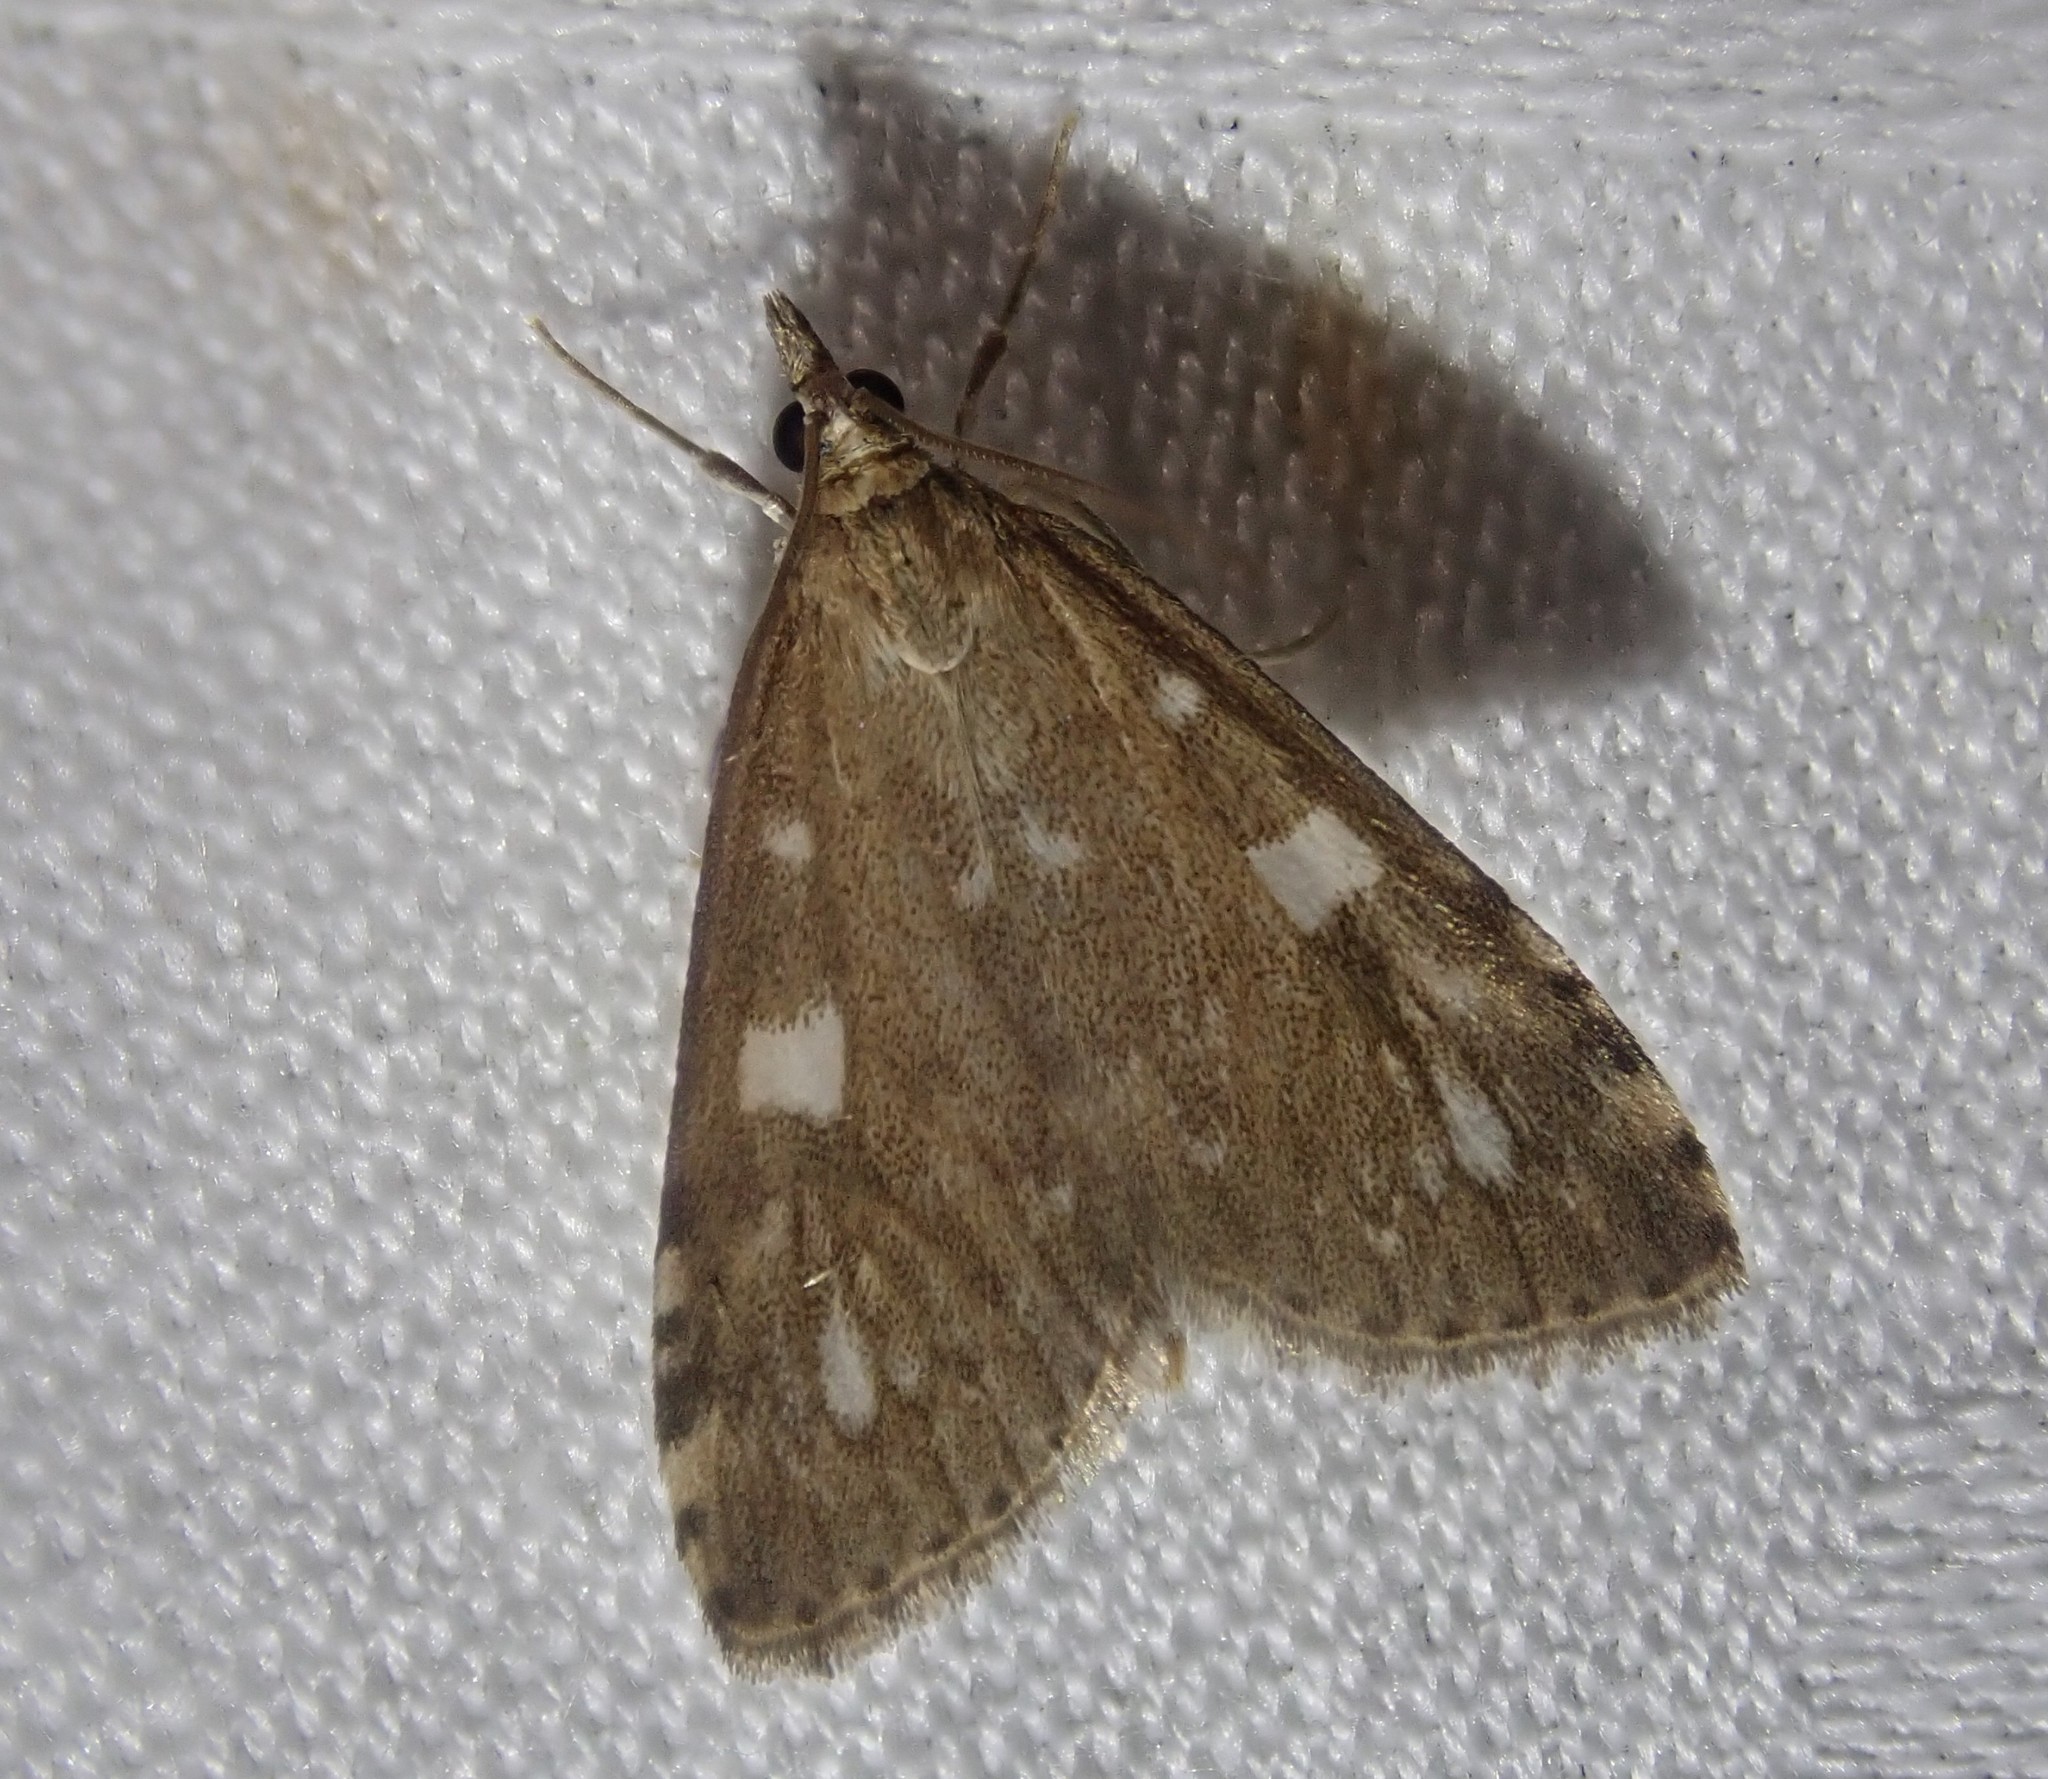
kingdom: Animalia
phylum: Arthropoda
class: Insecta
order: Lepidoptera
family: Crambidae
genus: Udea
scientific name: Udea olivalis
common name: Olive pearl
